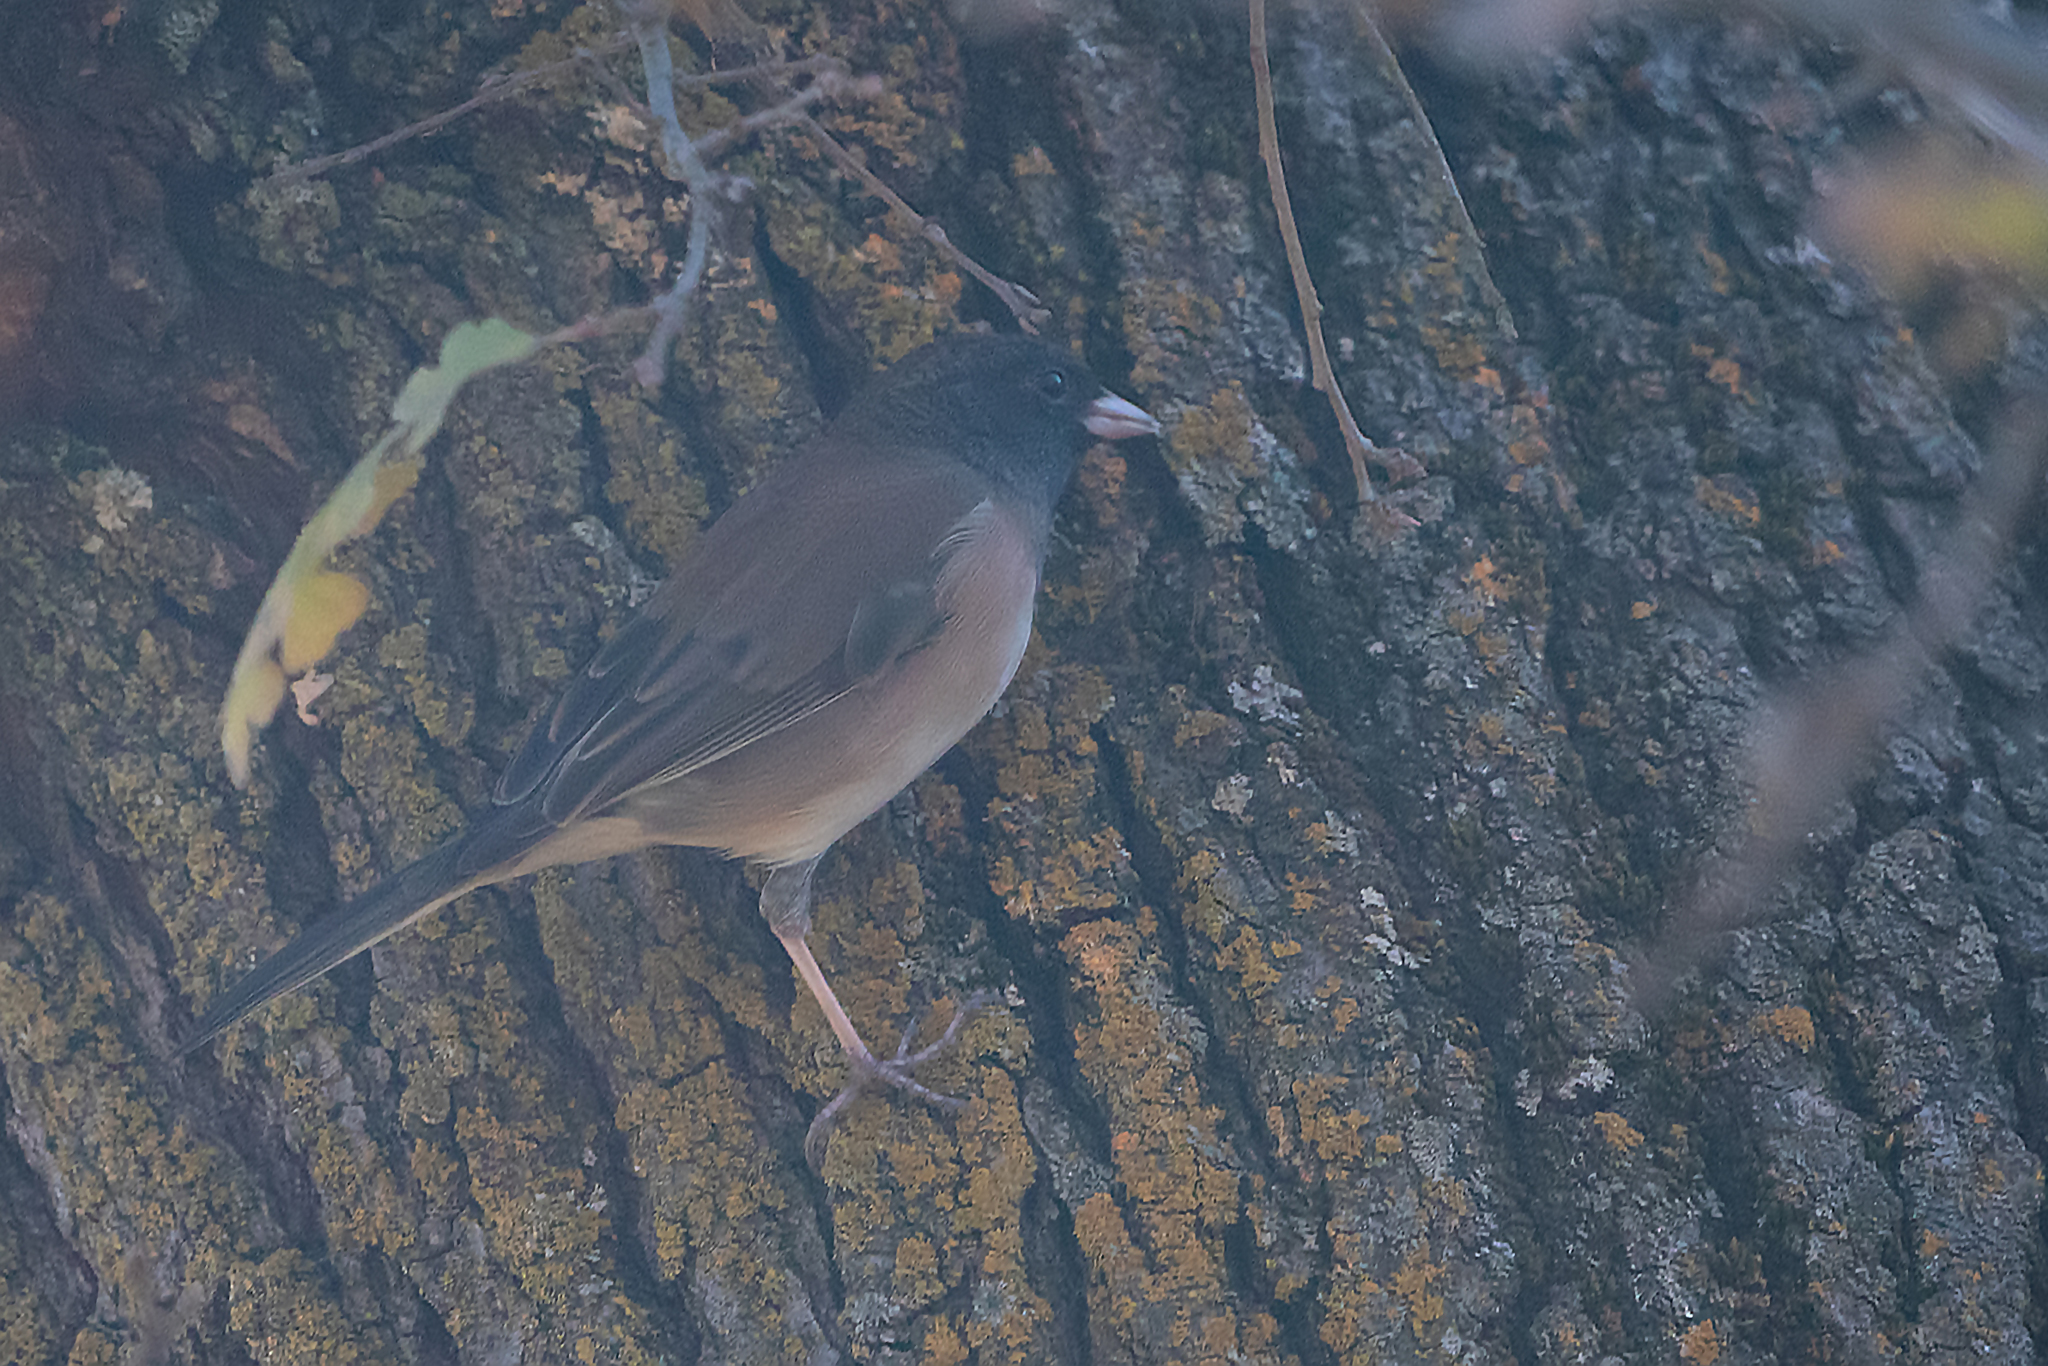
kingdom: Animalia
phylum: Chordata
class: Aves
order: Passeriformes
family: Passerellidae
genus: Junco
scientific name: Junco hyemalis
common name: Dark-eyed junco
